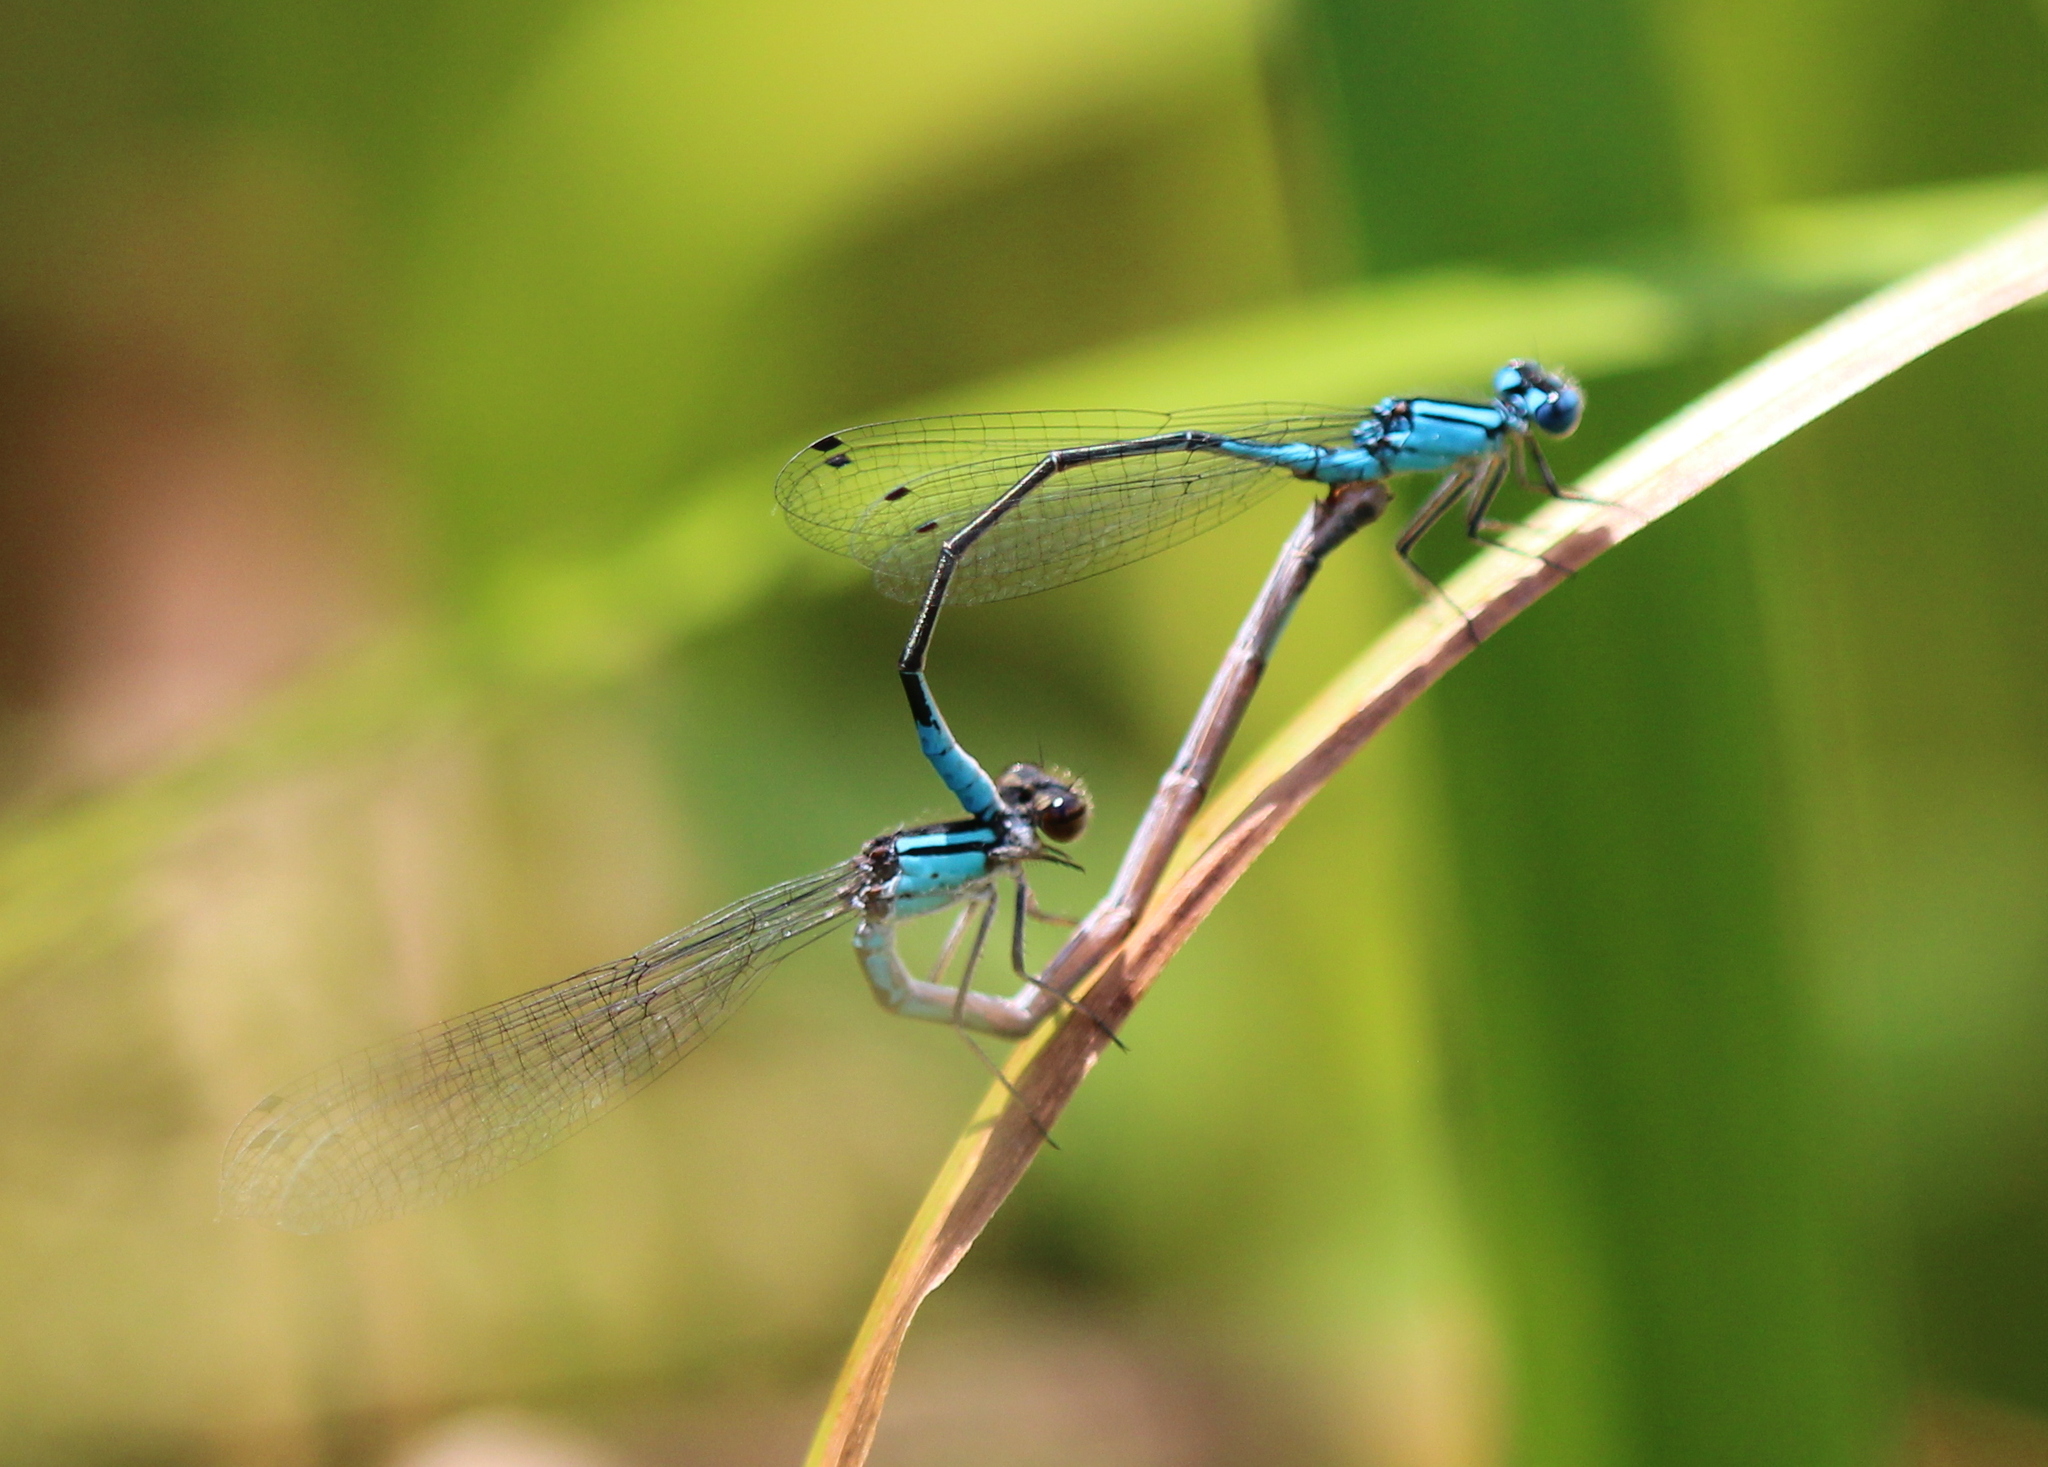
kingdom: Animalia
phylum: Arthropoda
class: Insecta
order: Odonata
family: Coenagrionidae
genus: Enallagma
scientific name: Enallagma aspersum
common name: Azure bluet
